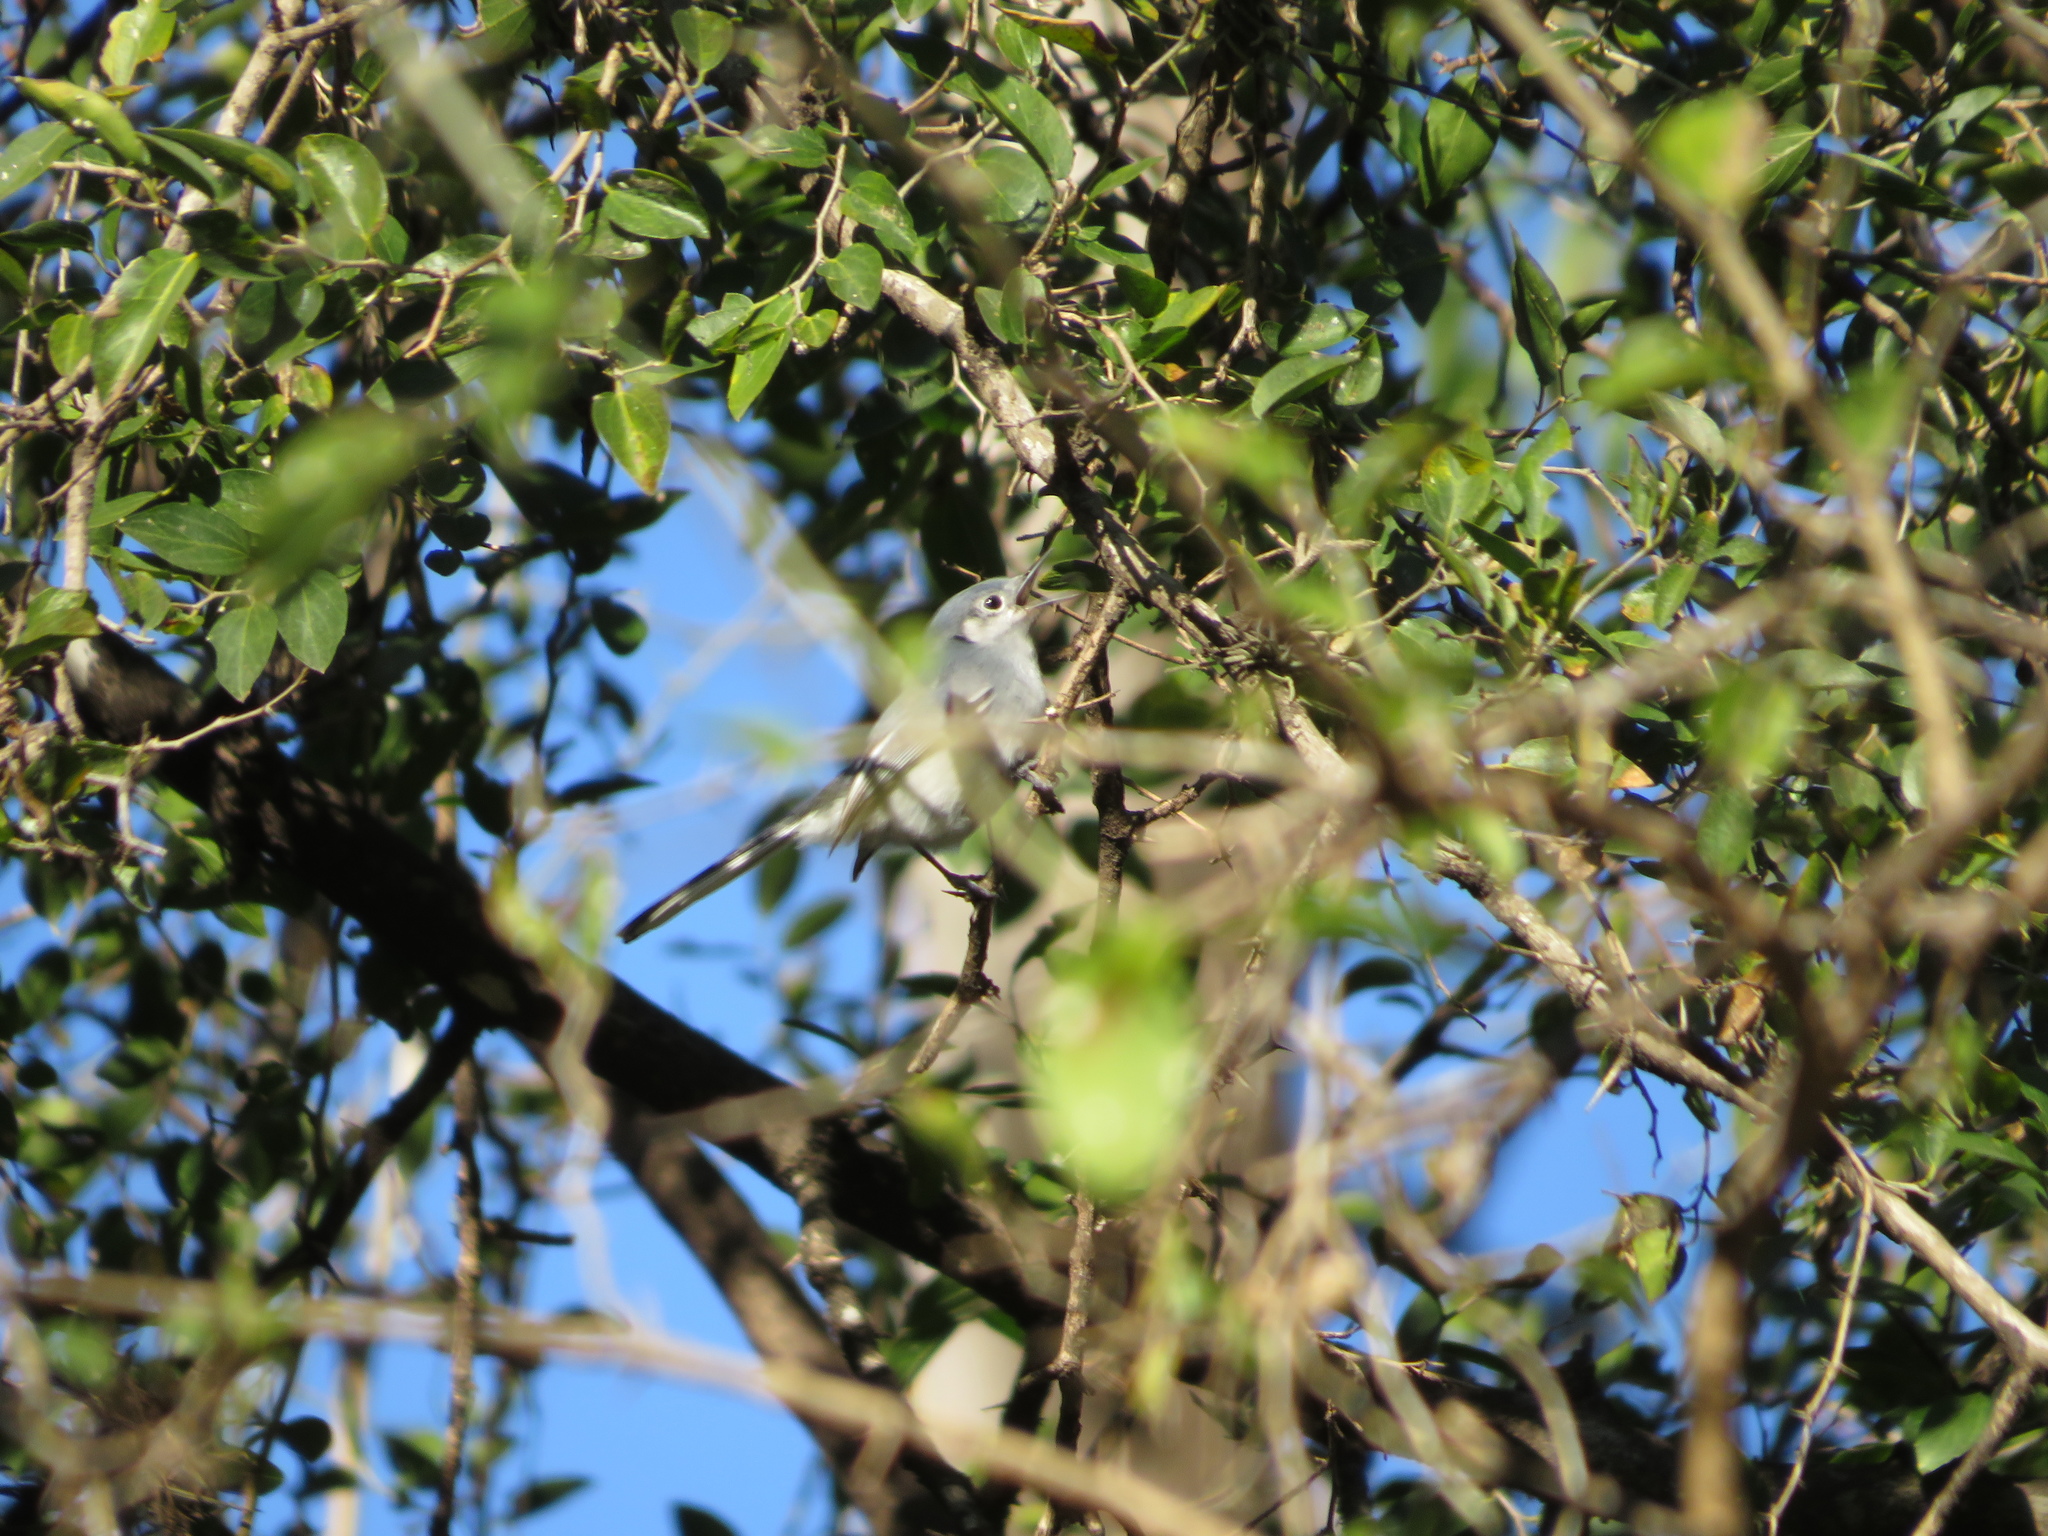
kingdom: Animalia
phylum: Chordata
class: Aves
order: Passeriformes
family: Polioptilidae
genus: Polioptila
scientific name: Polioptila dumicola
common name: Masked gnatcatcher
